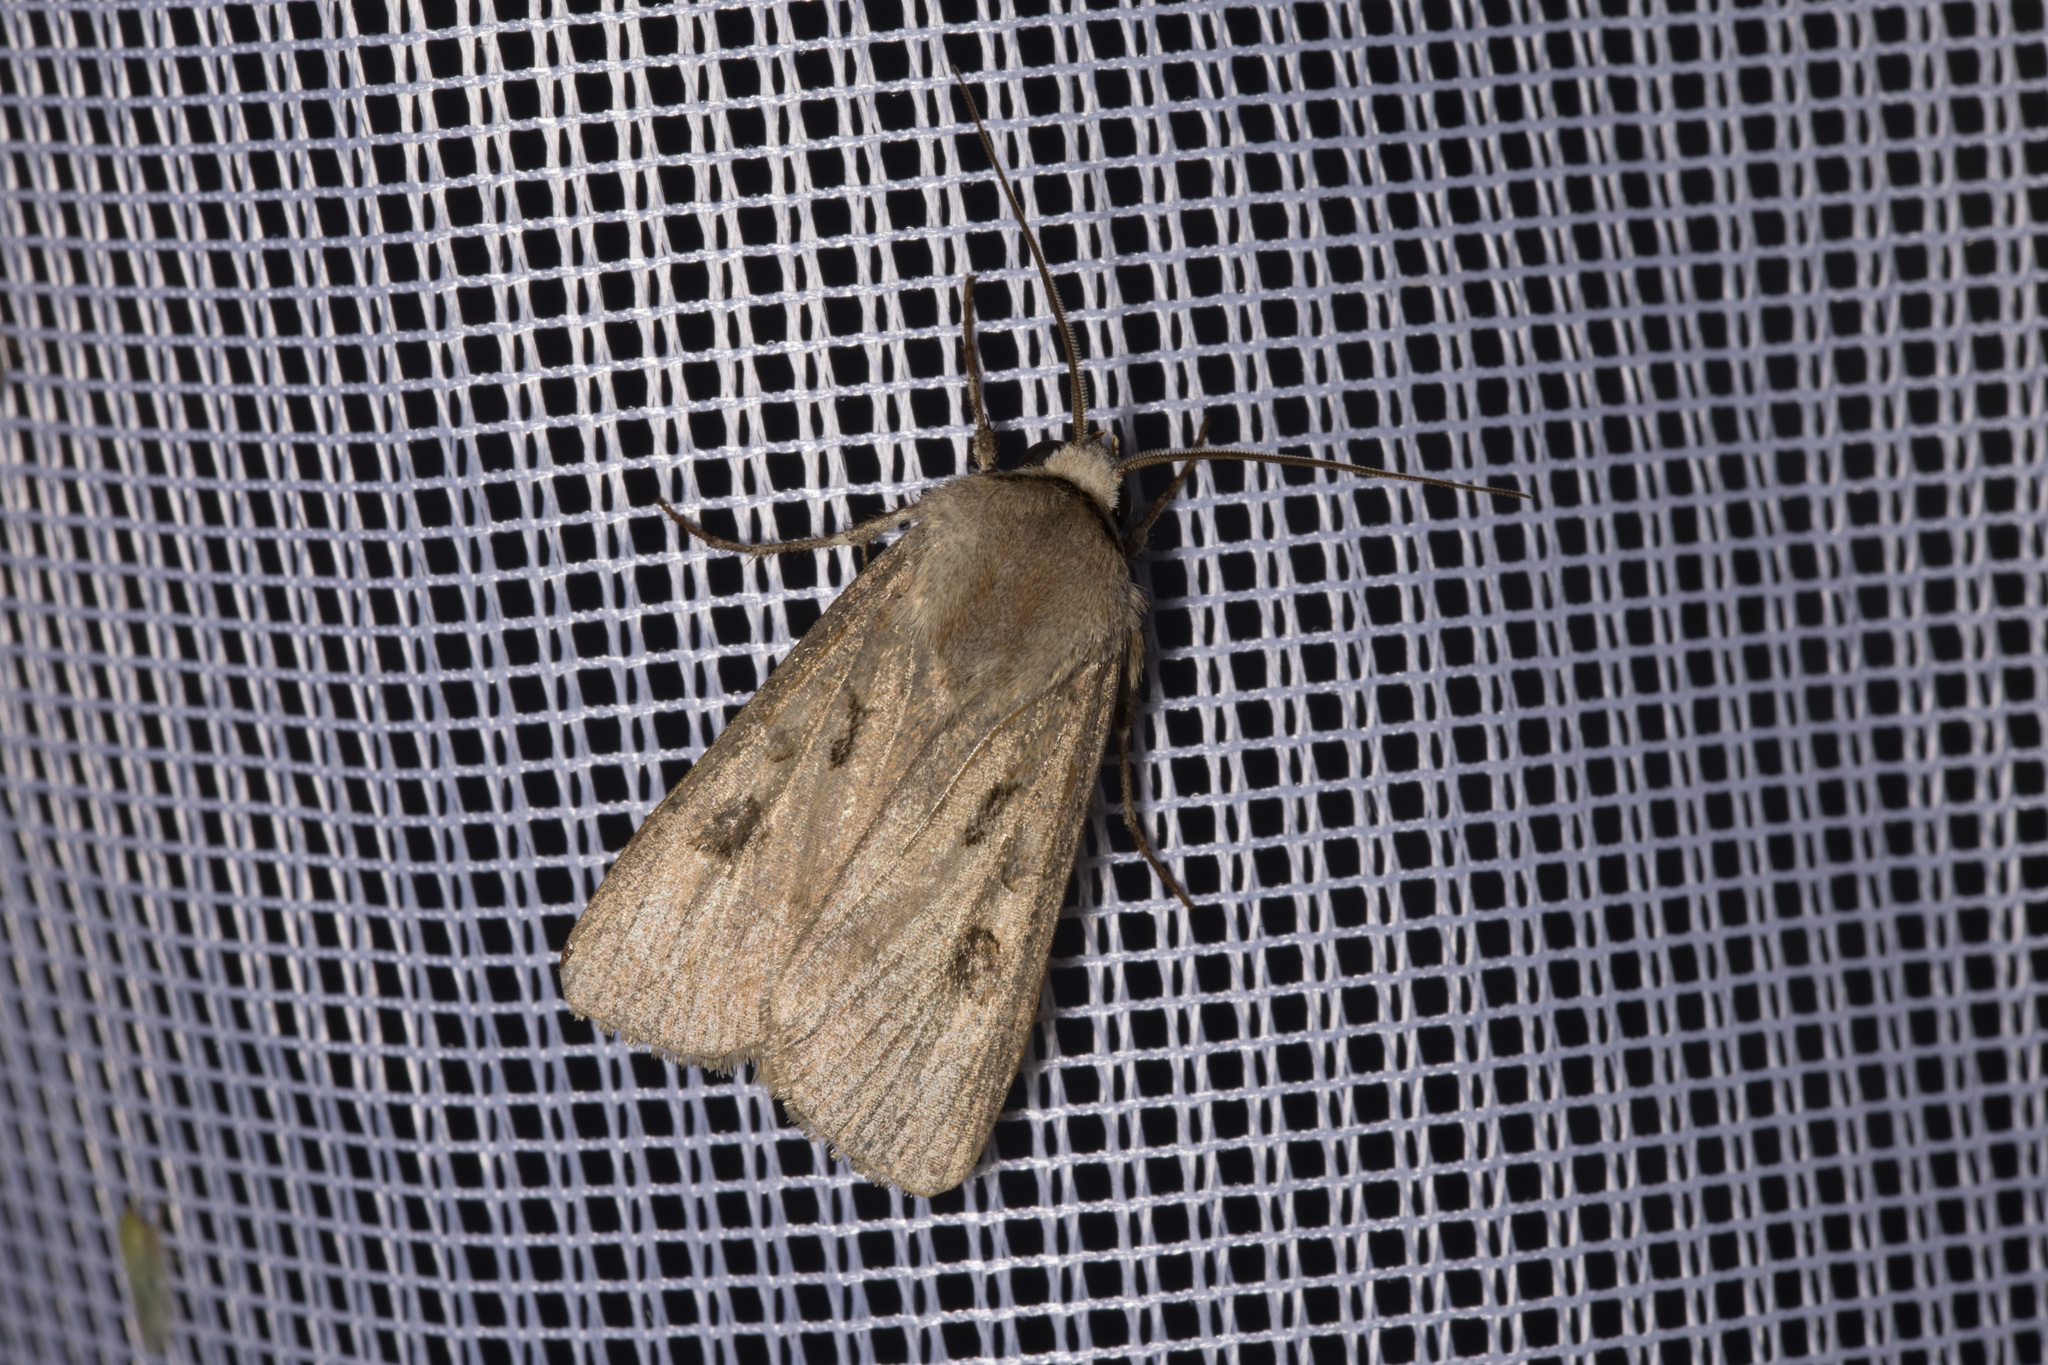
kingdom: Animalia
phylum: Arthropoda
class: Insecta
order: Lepidoptera
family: Noctuidae
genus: Agrotis
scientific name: Agrotis exclamationis
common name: Heart and dart
